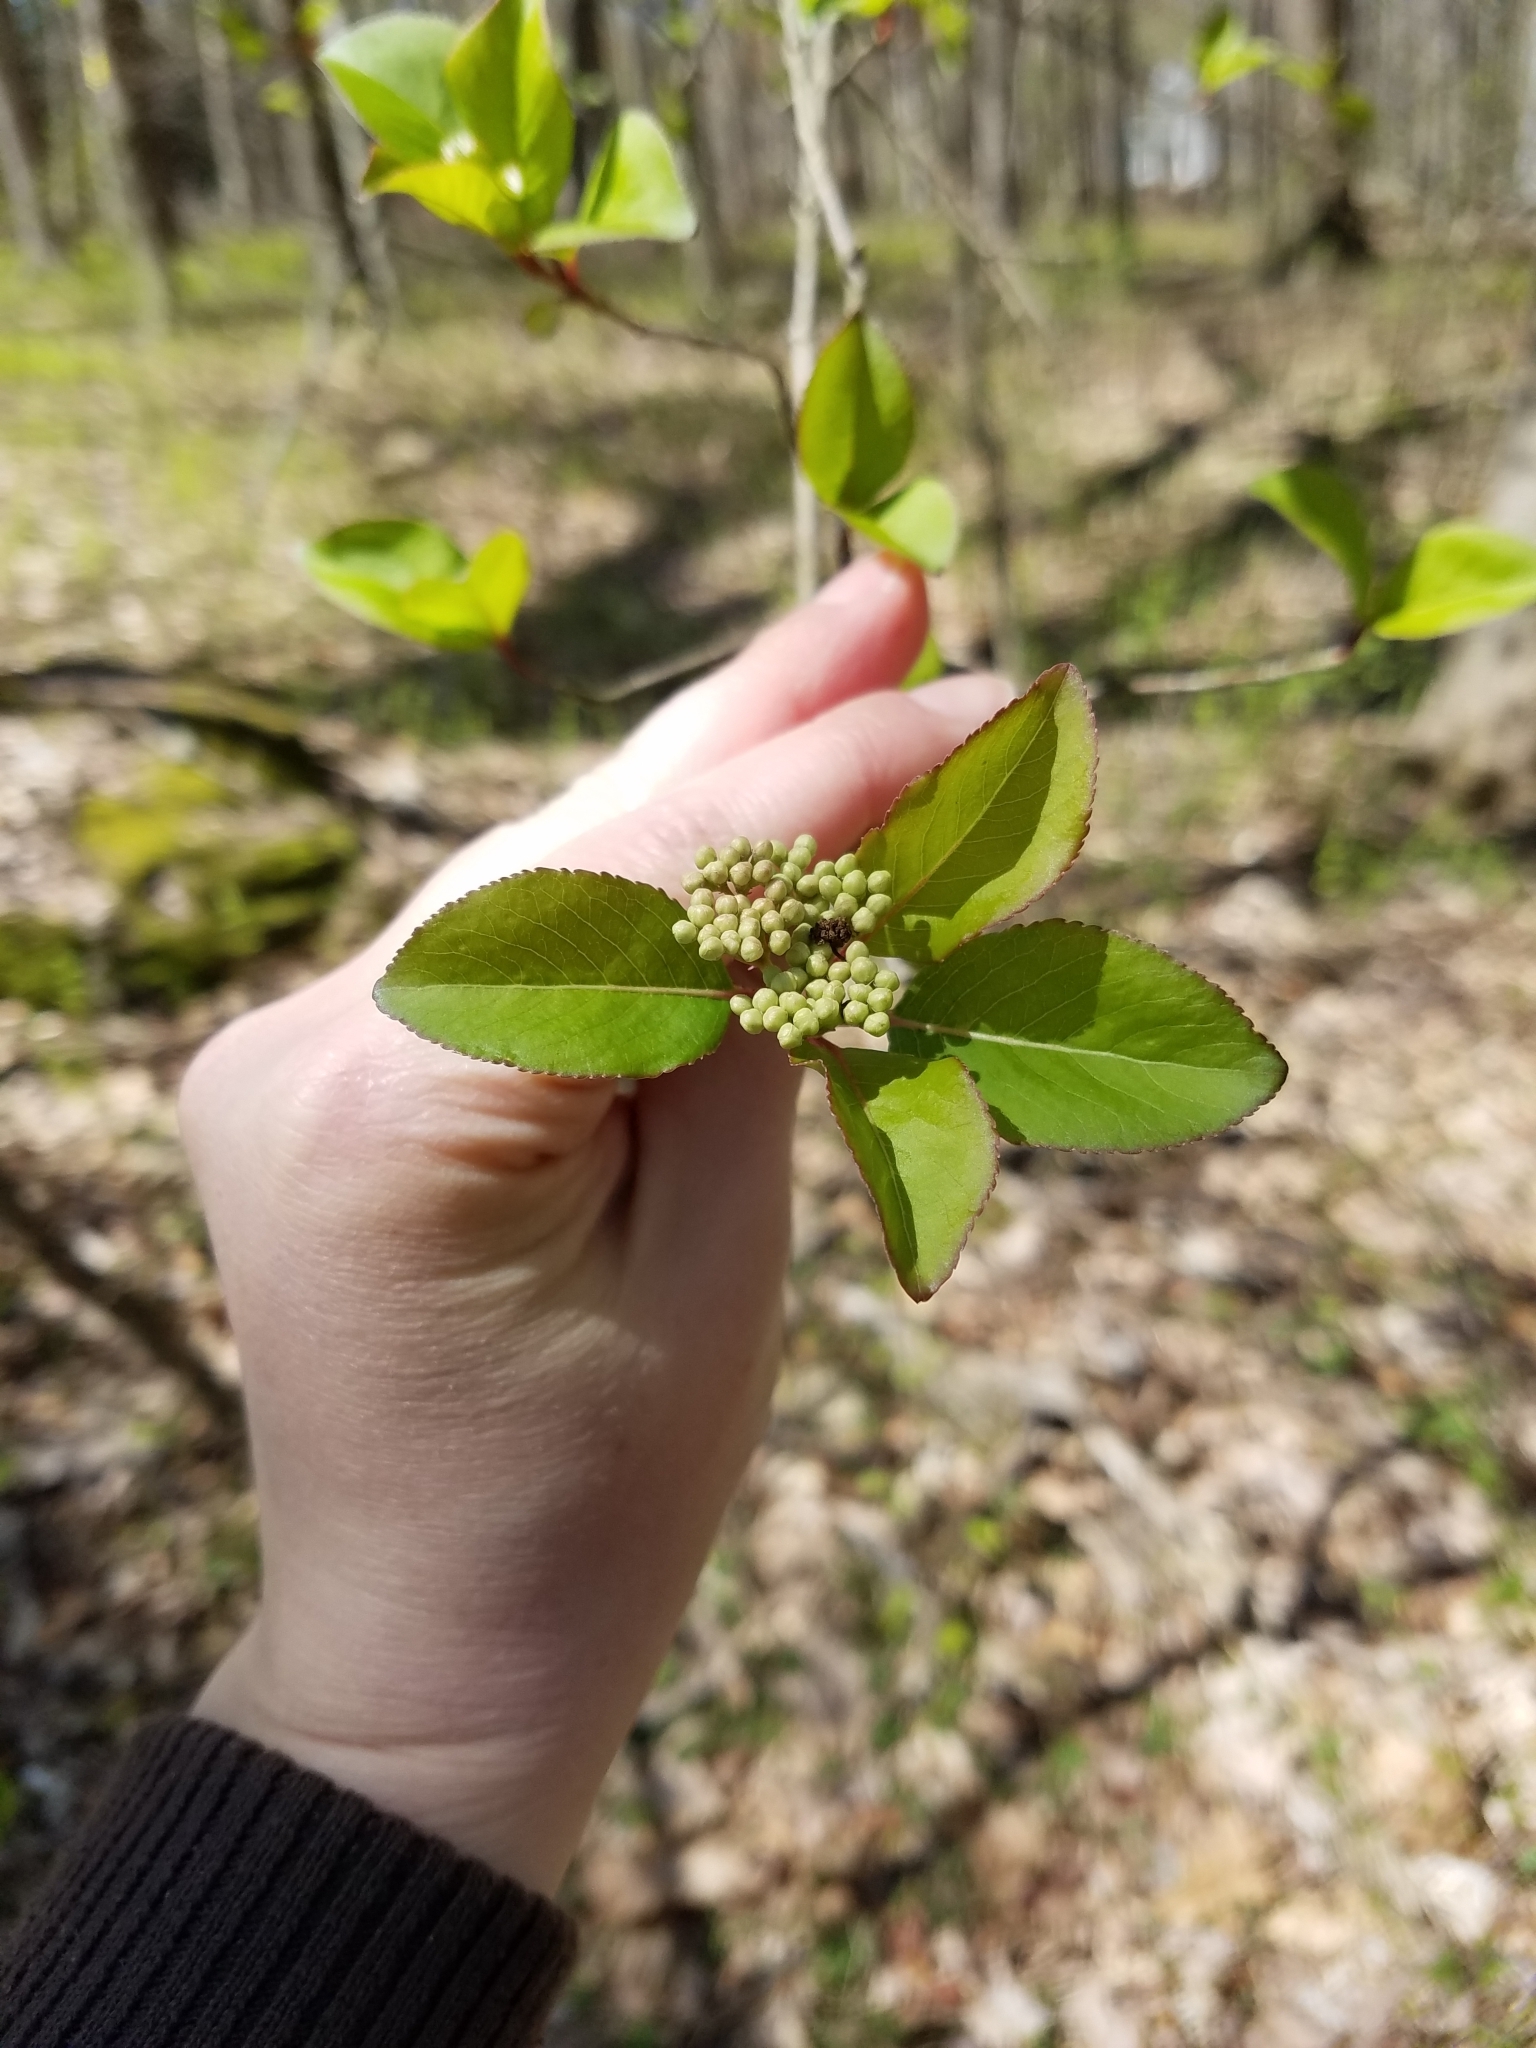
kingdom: Plantae
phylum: Tracheophyta
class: Magnoliopsida
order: Dipsacales
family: Viburnaceae
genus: Viburnum
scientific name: Viburnum prunifolium
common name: Black haw
